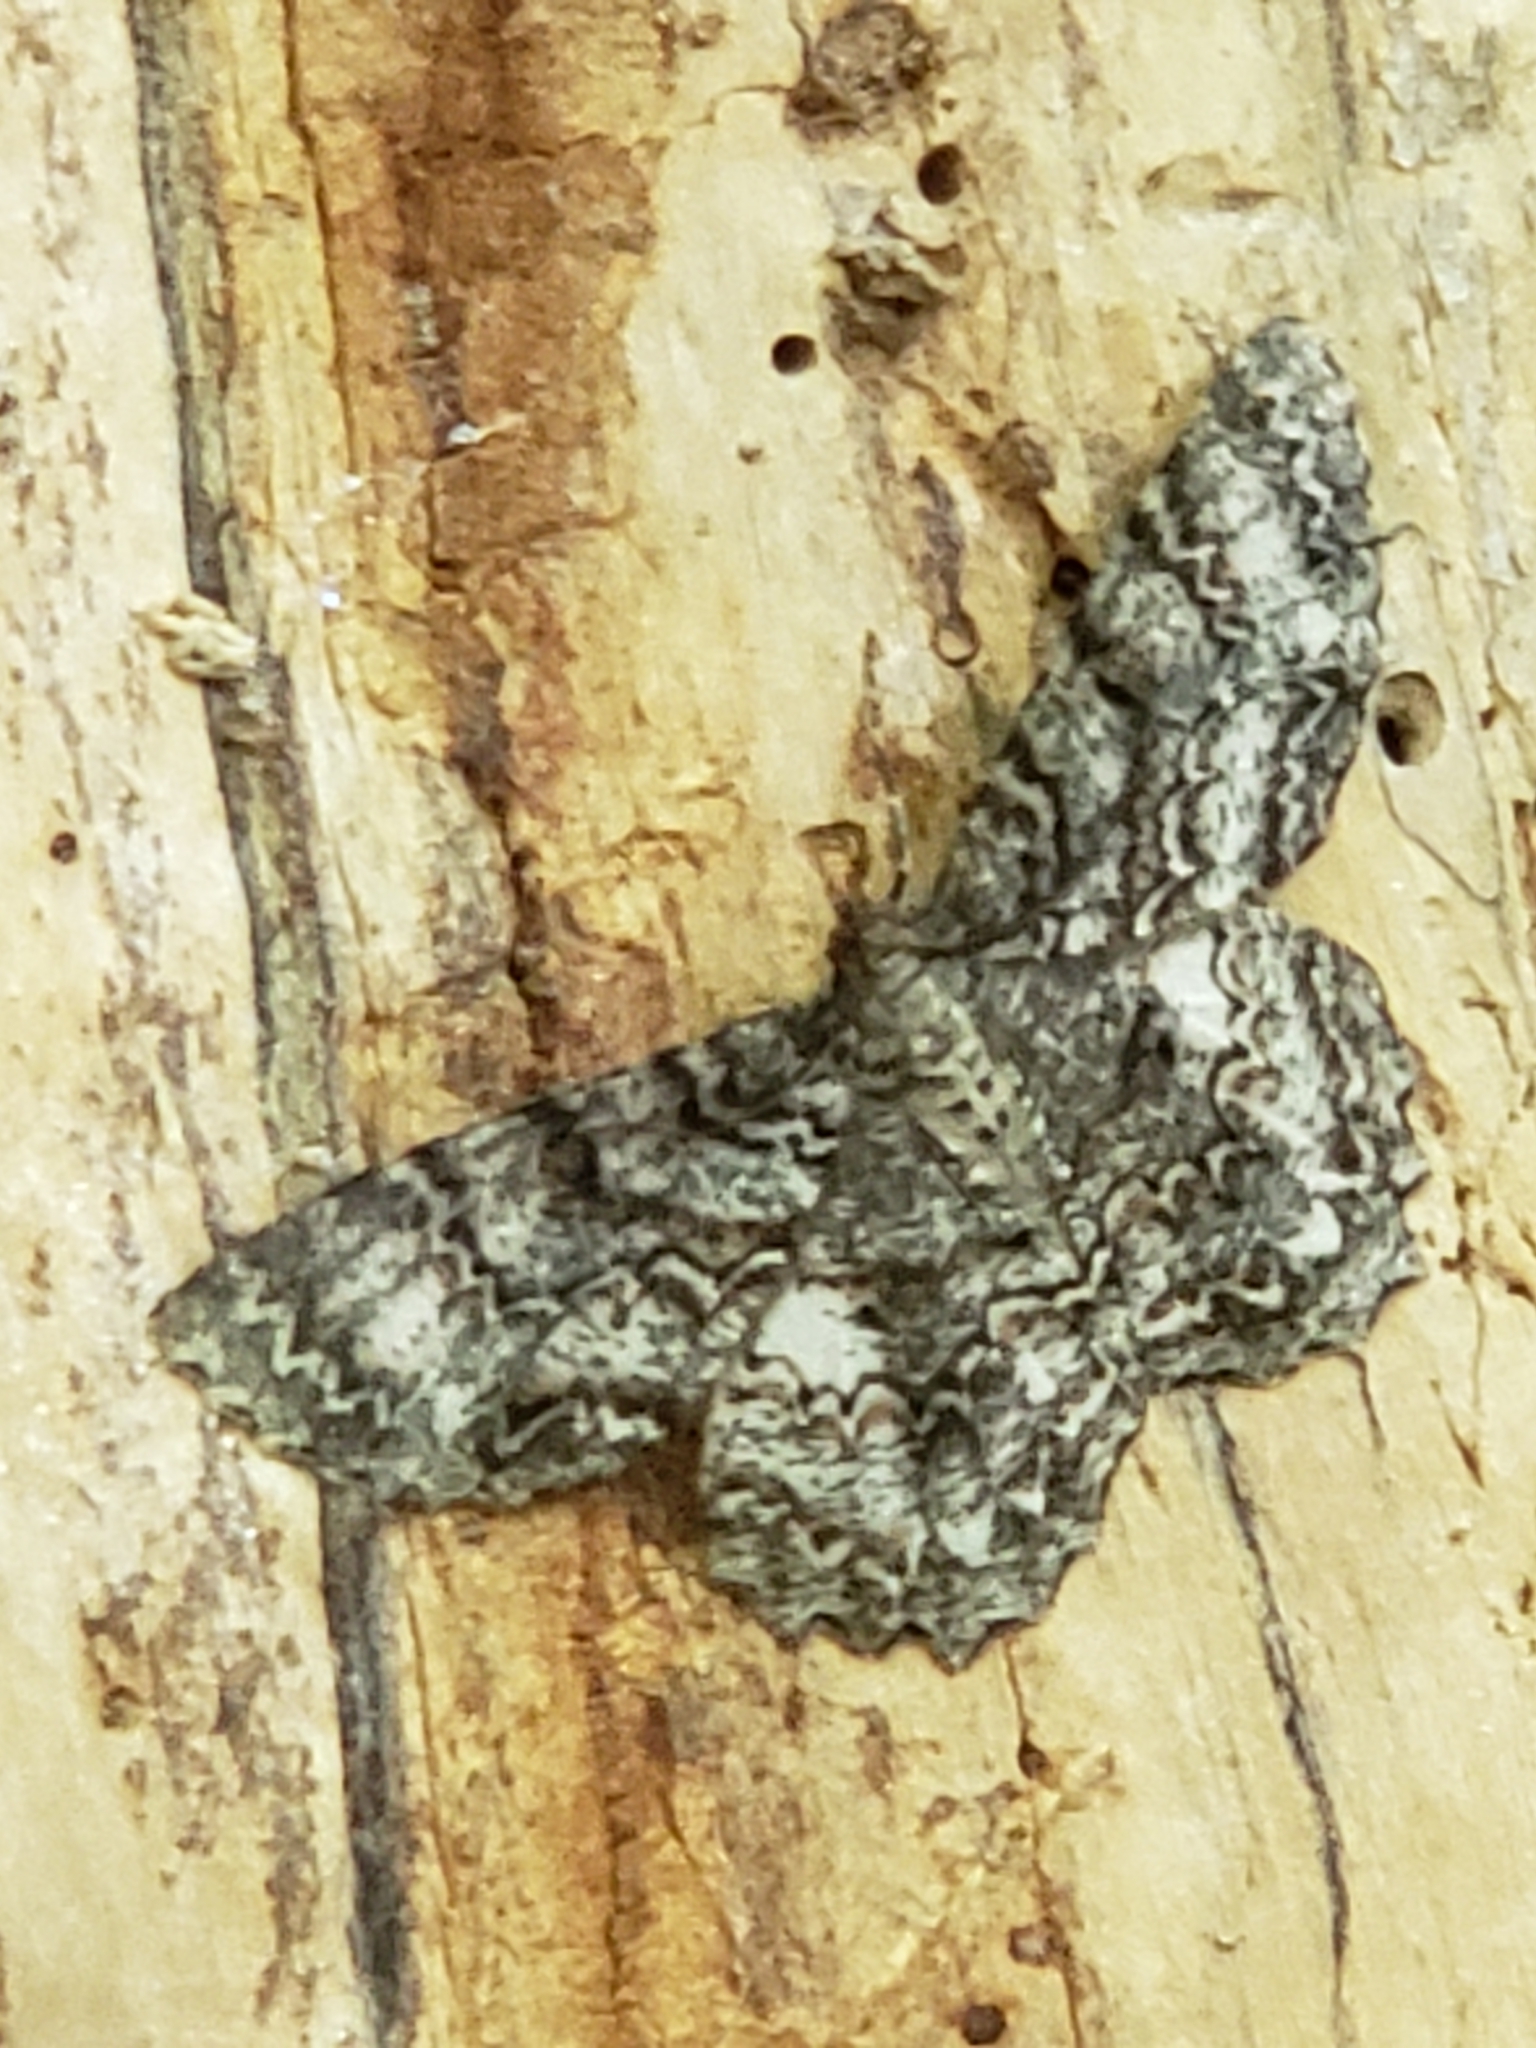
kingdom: Animalia
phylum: Arthropoda
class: Insecta
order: Lepidoptera
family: Geometridae
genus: Epimecis
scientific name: Epimecis hortaria
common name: Tulip-tree beauty
